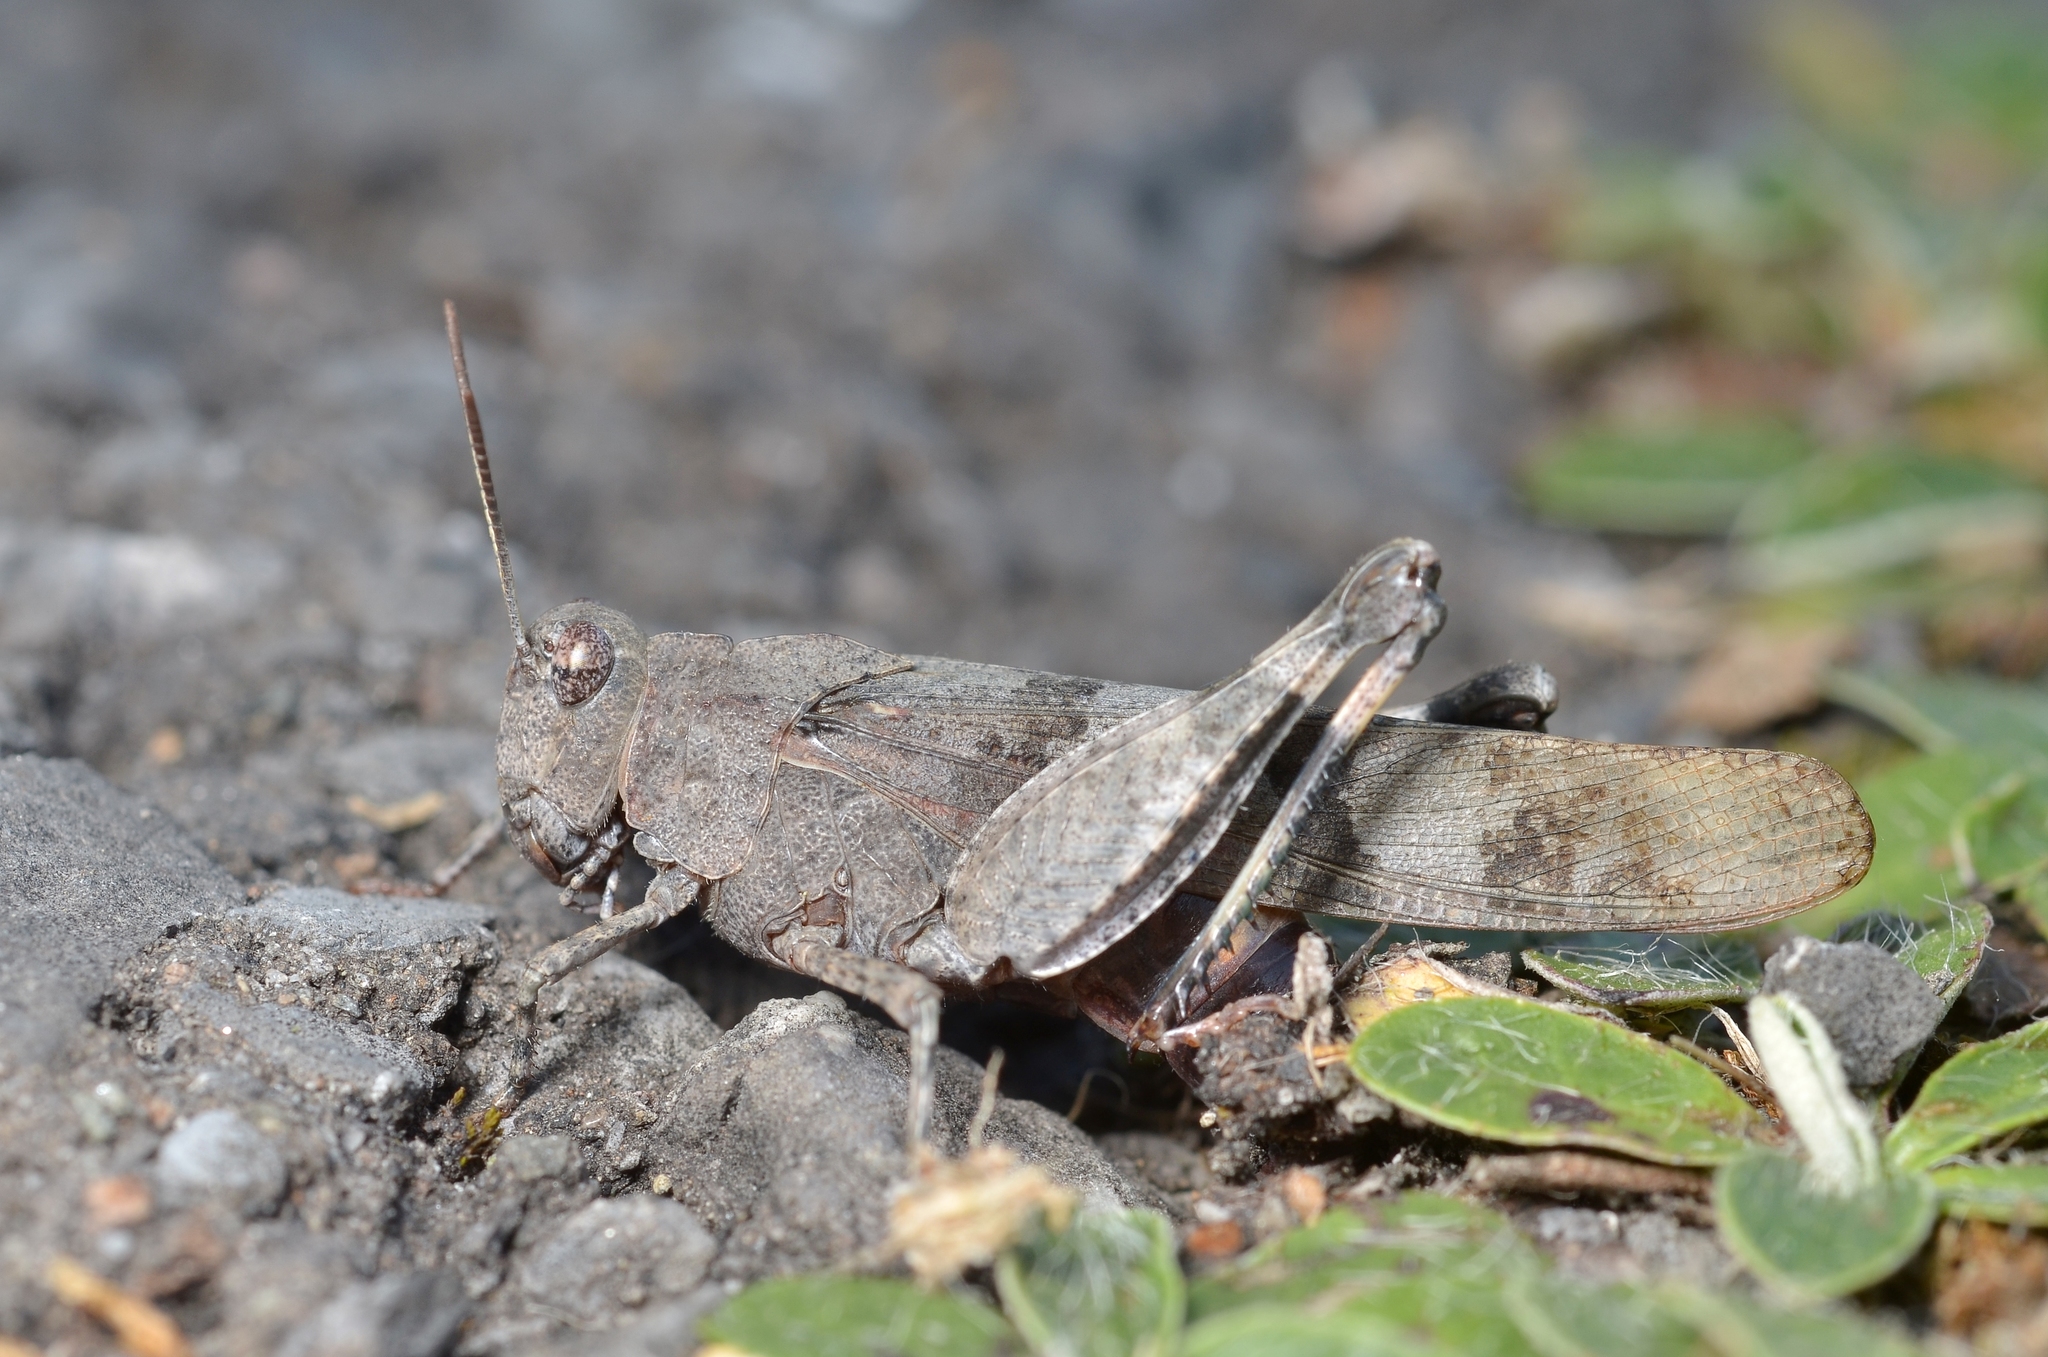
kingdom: Animalia
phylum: Arthropoda
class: Insecta
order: Orthoptera
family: Acrididae
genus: Oedipoda
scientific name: Oedipoda caerulescens
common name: Blue-winged grasshopper
